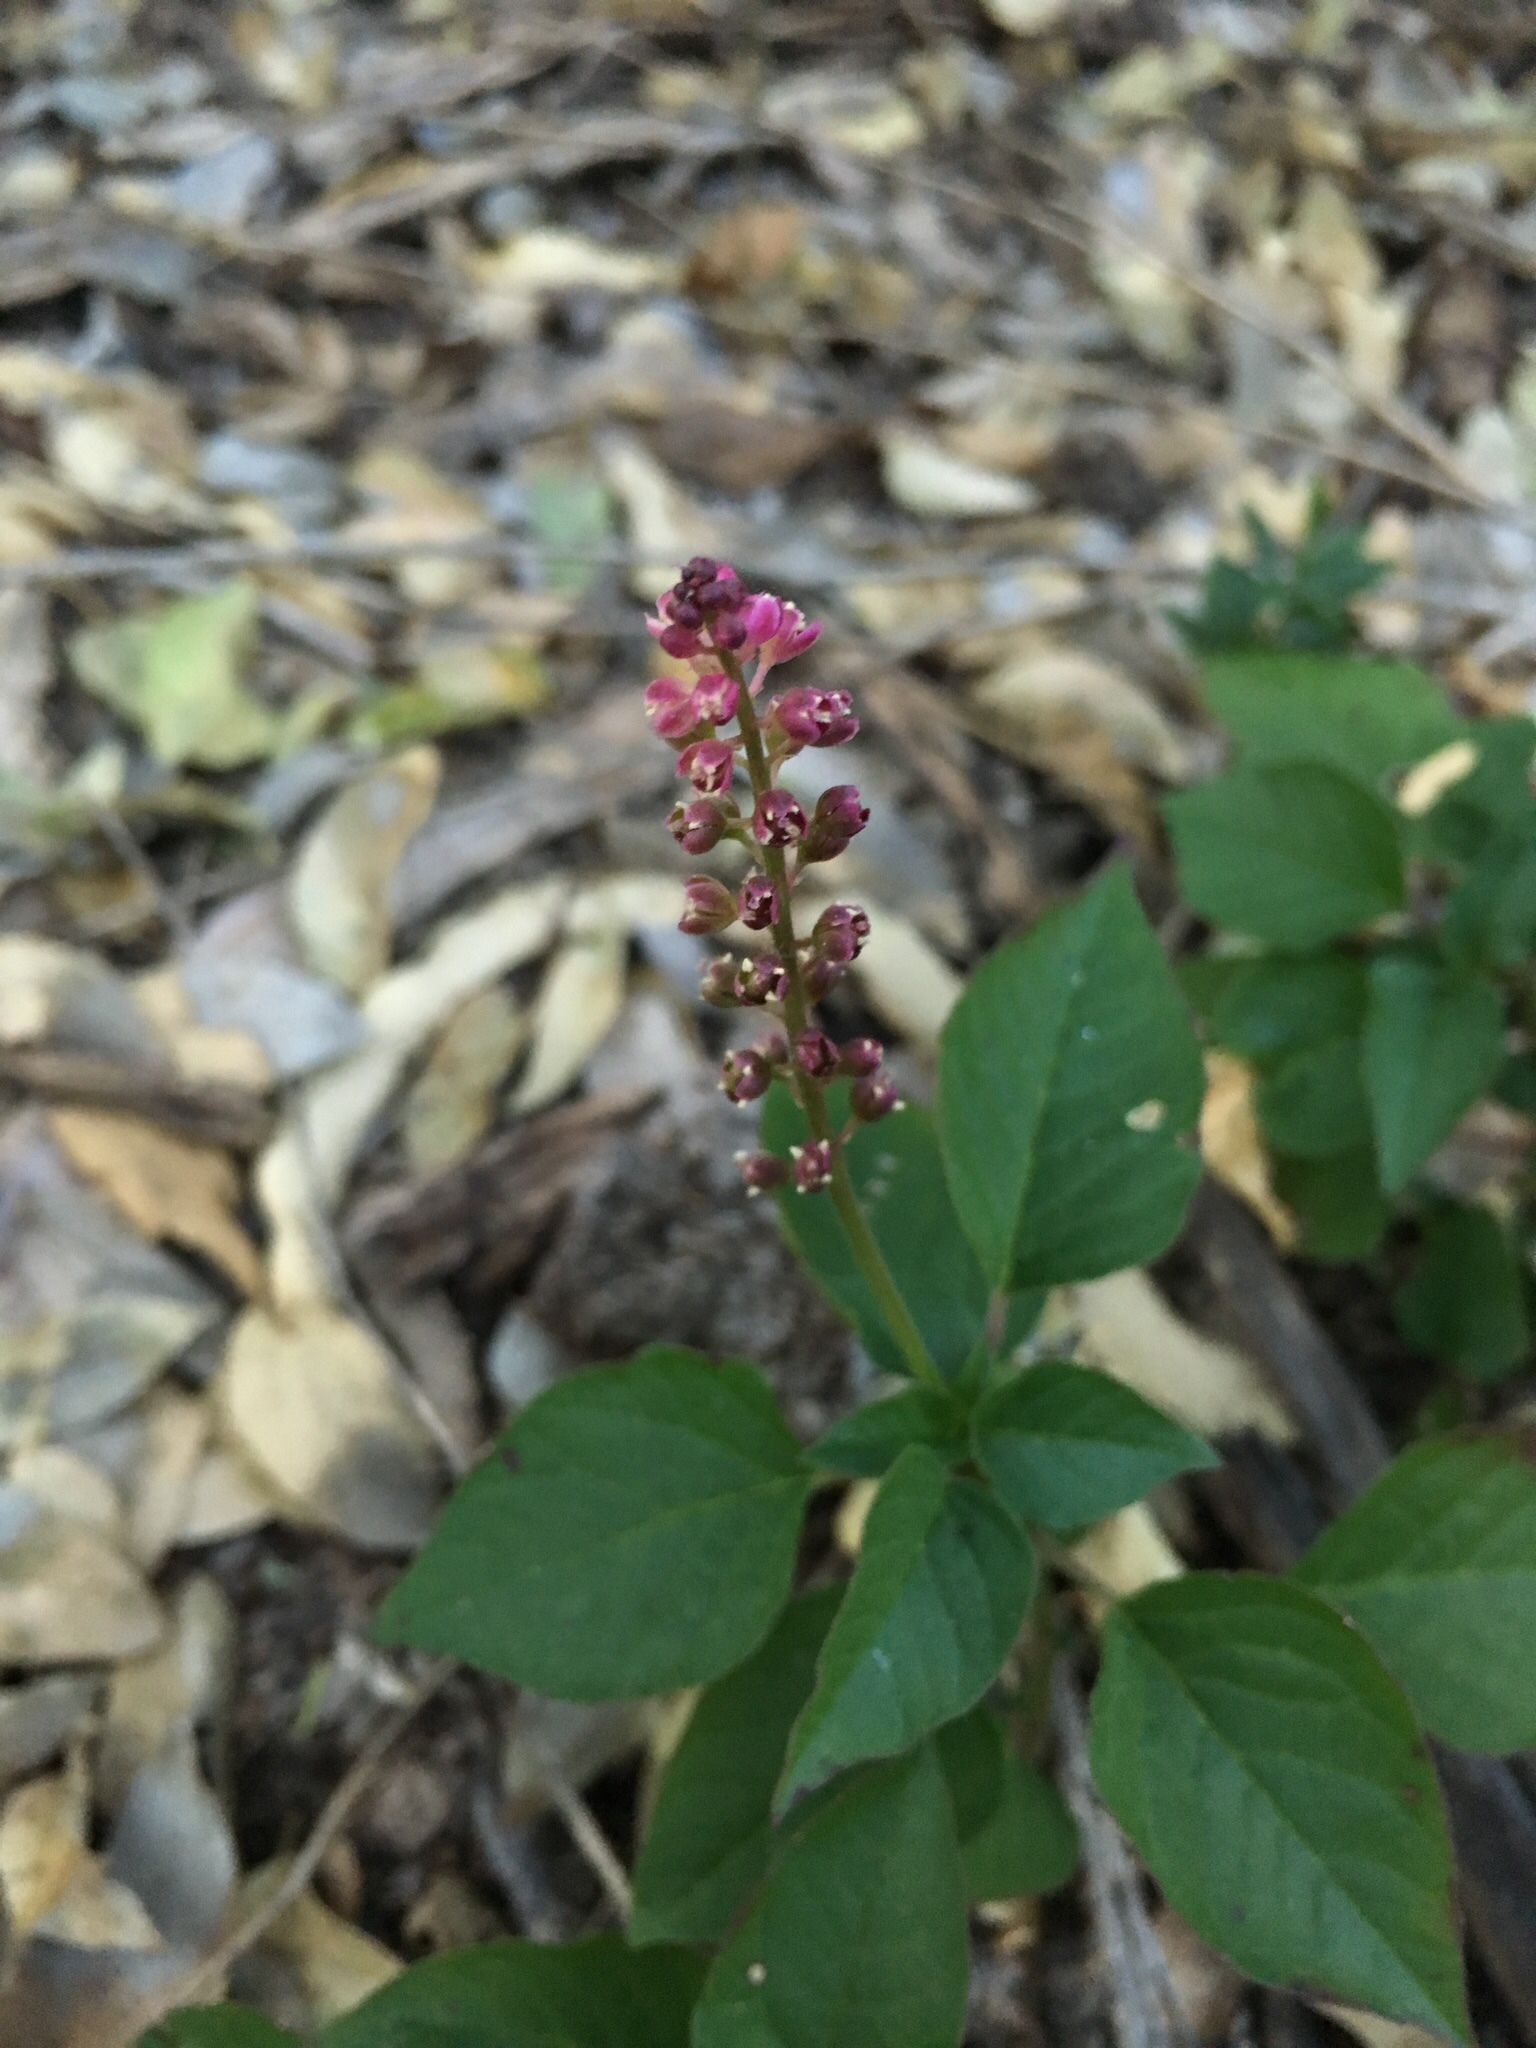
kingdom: Plantae
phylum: Tracheophyta
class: Magnoliopsida
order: Caryophyllales
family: Phytolaccaceae
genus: Rivina
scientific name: Rivina humilis
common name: Rougeplant
